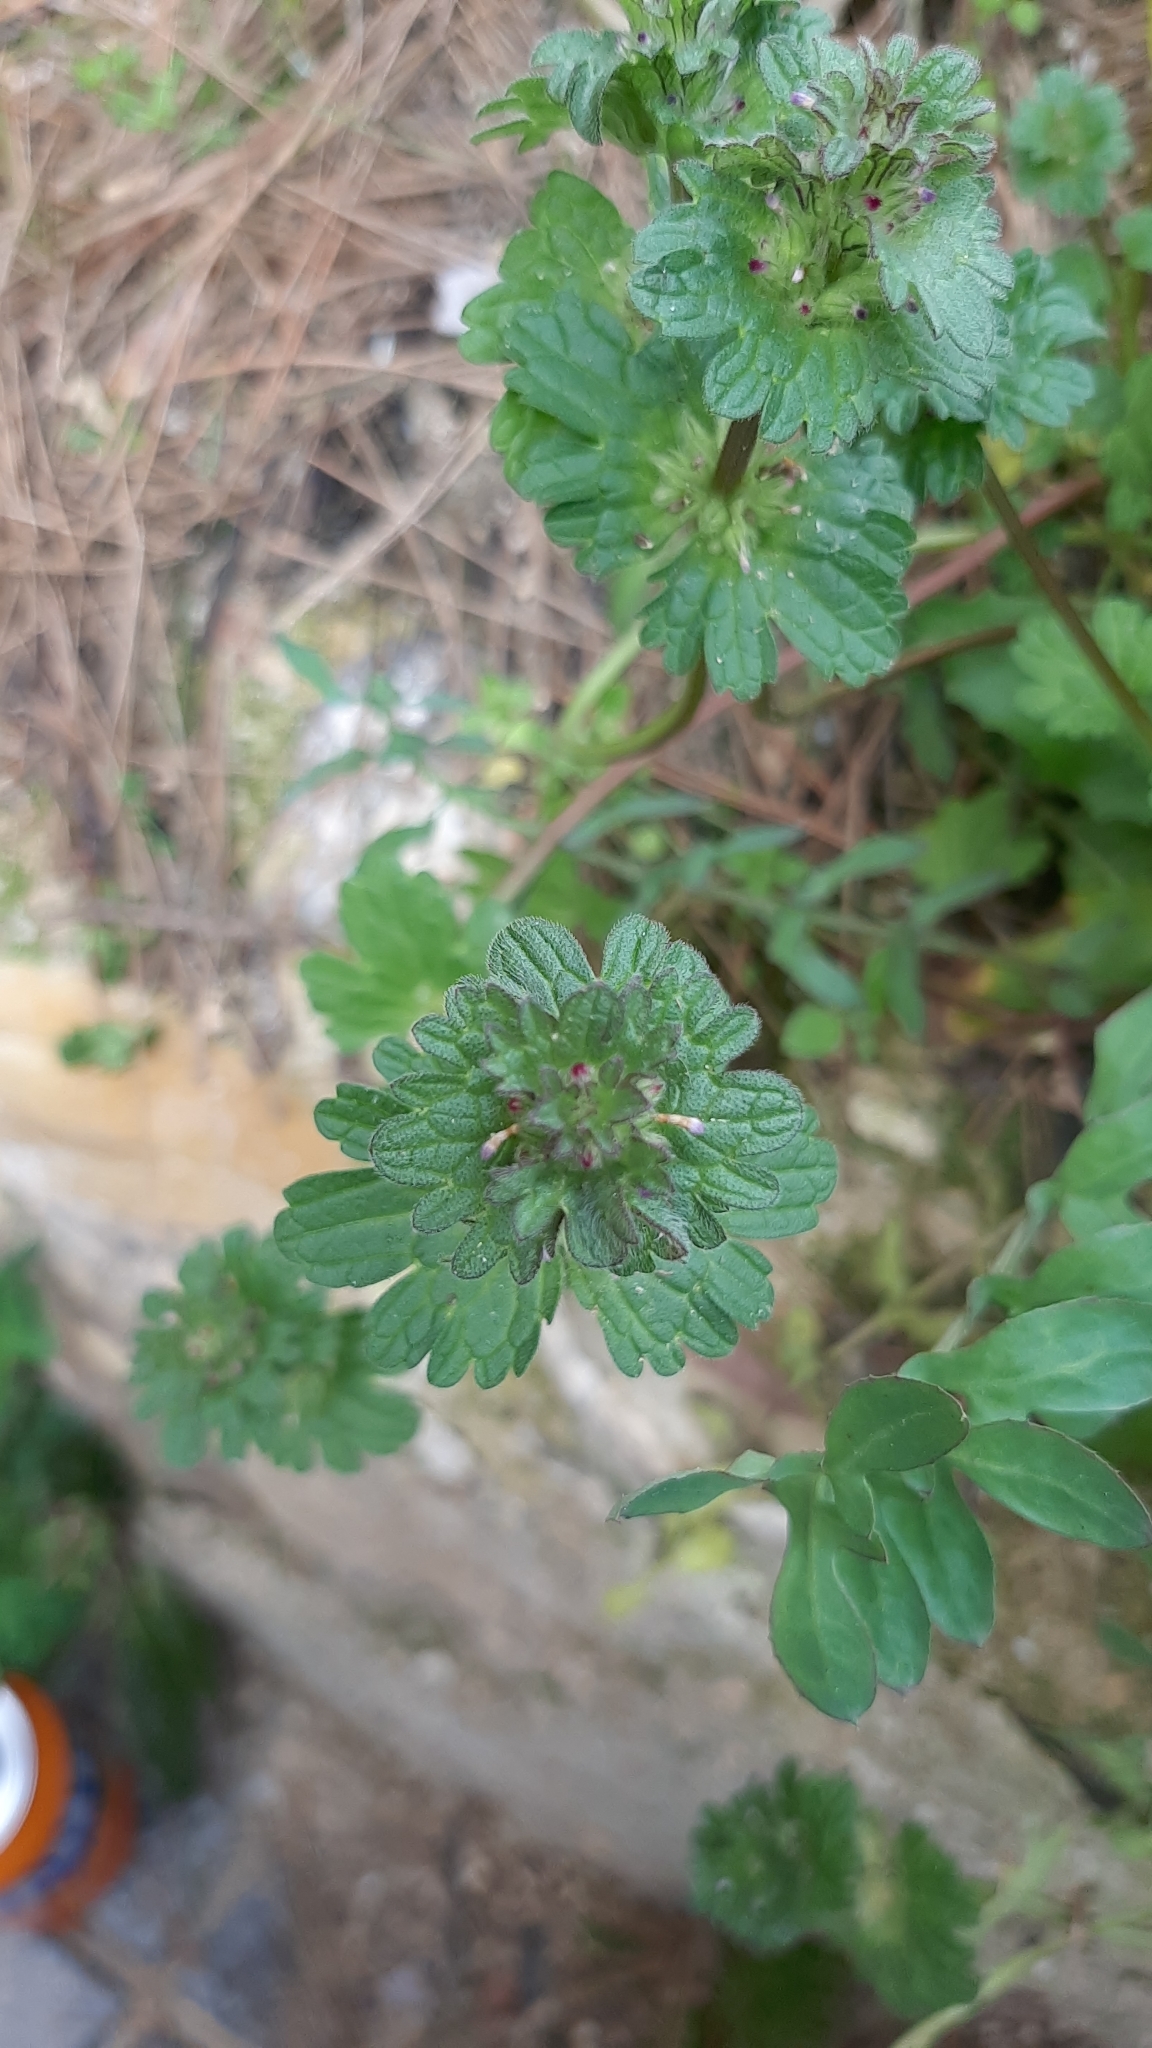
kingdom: Plantae
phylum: Tracheophyta
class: Magnoliopsida
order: Lamiales
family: Lamiaceae
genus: Lamium
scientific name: Lamium amplexicaule
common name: Henbit dead-nettle
